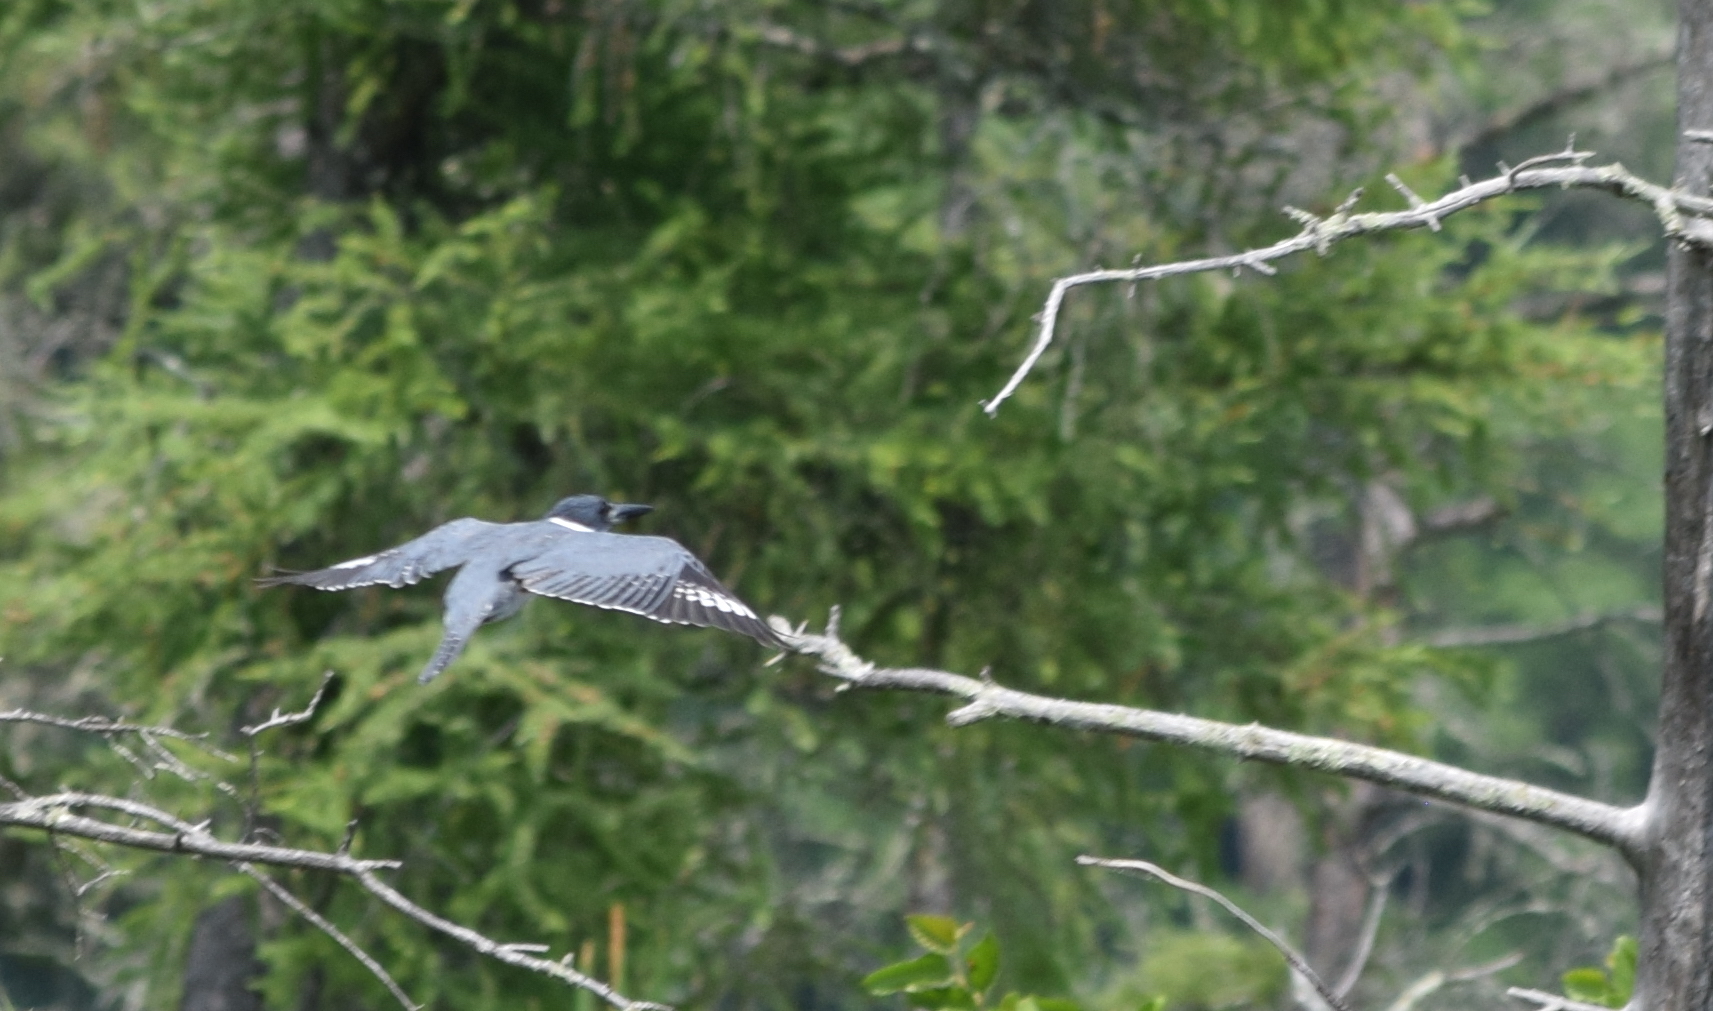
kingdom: Animalia
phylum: Chordata
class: Aves
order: Coraciiformes
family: Alcedinidae
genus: Megaceryle
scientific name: Megaceryle alcyon
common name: Belted kingfisher
